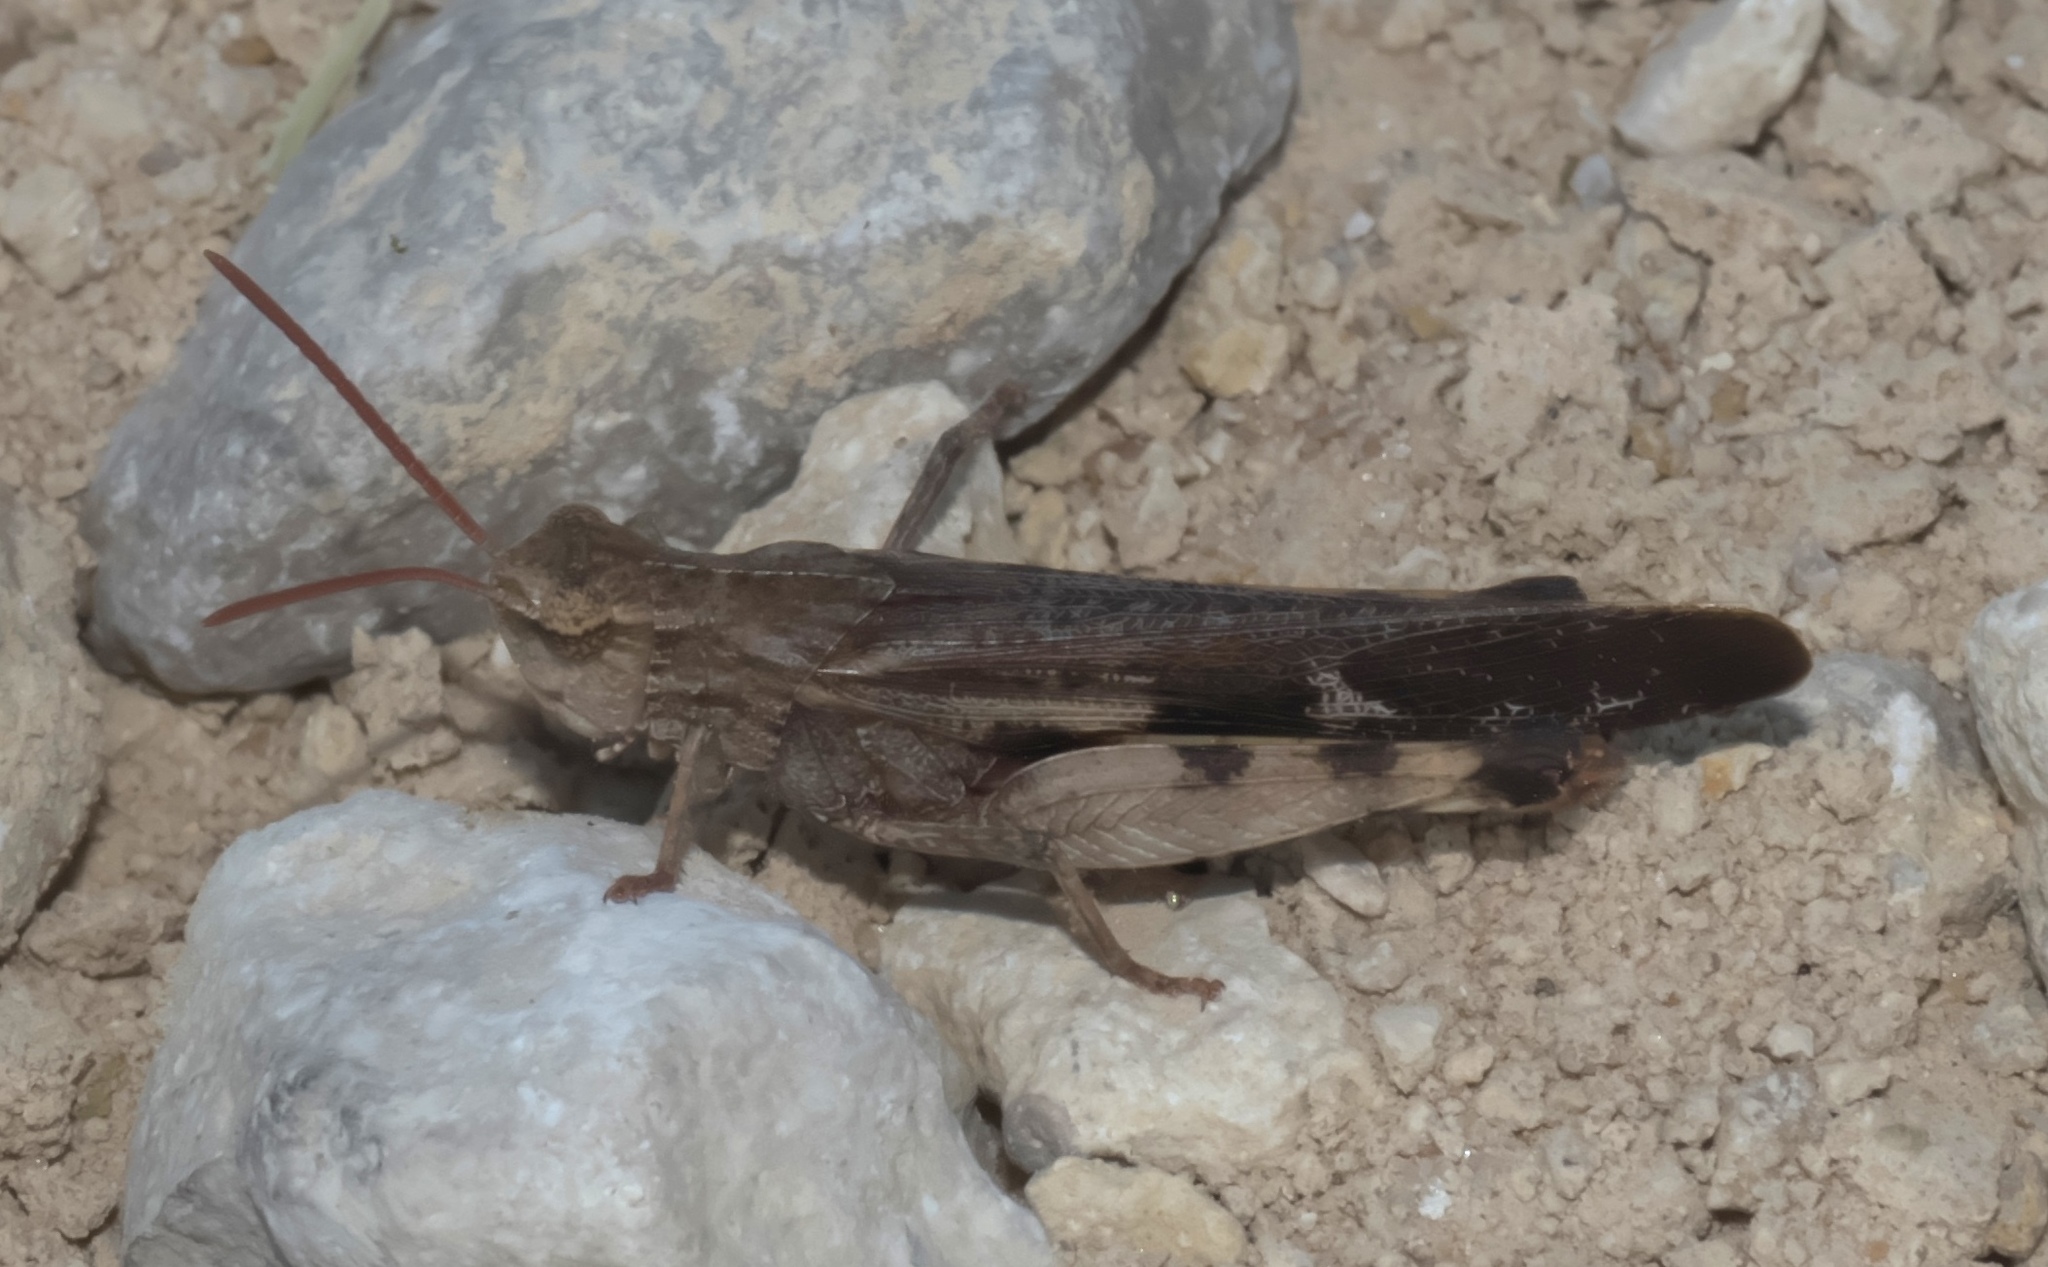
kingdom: Animalia
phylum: Arthropoda
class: Insecta
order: Orthoptera
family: Acrididae
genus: Chortophaga
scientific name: Chortophaga viridifasciata
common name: Green-striped grasshopper
